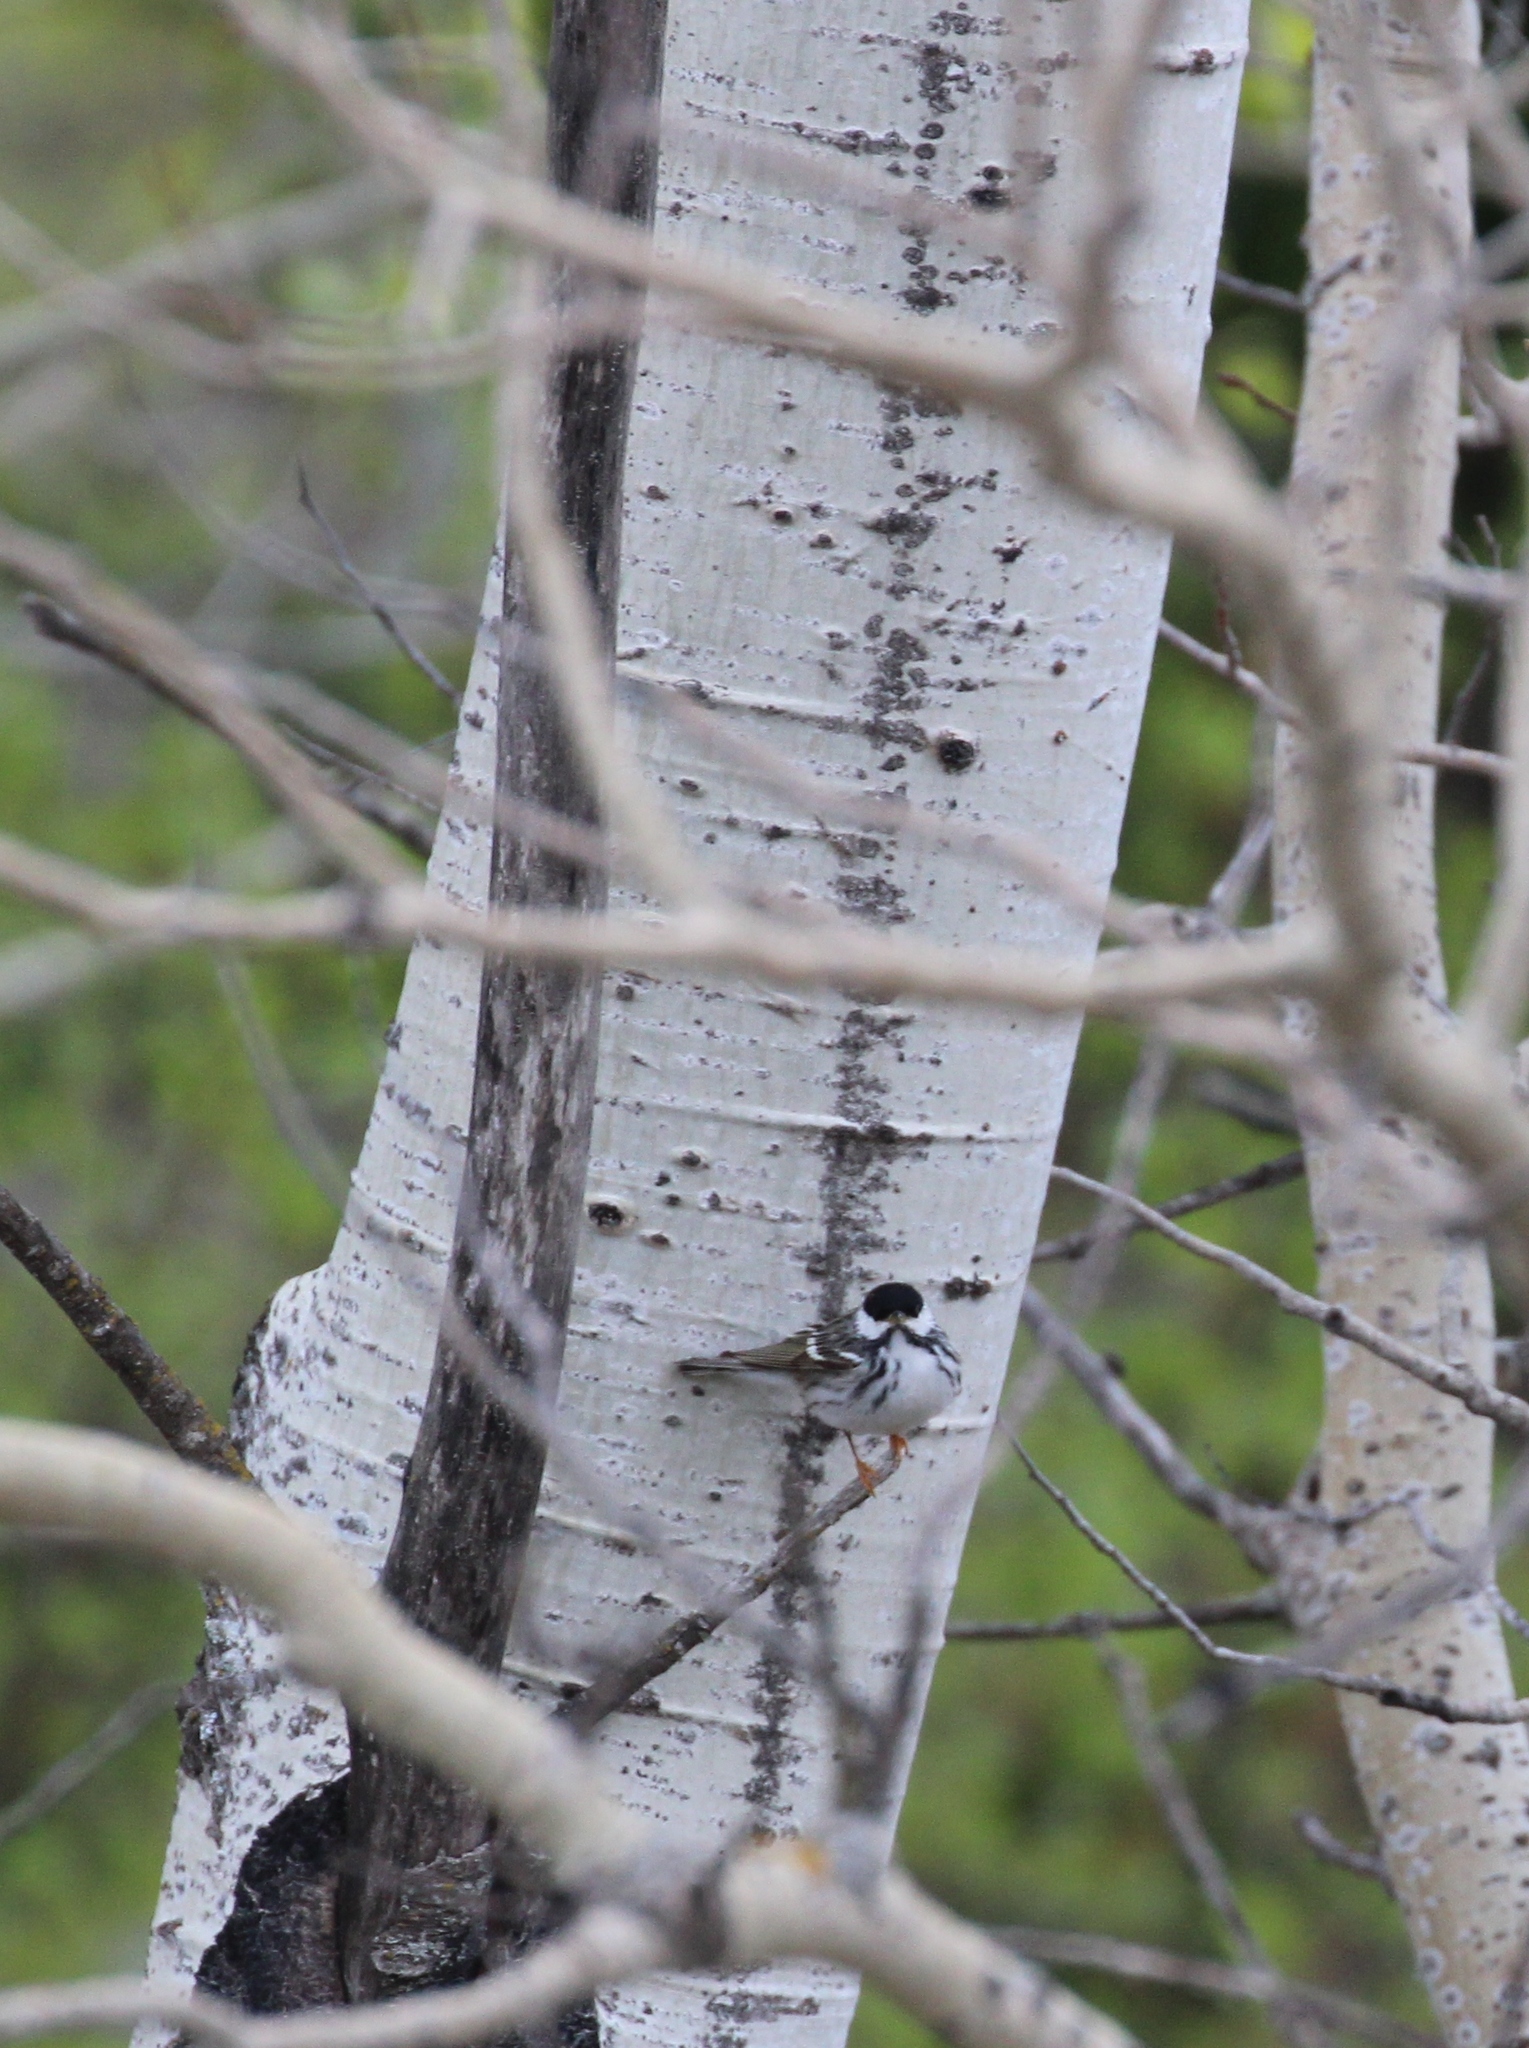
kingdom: Animalia
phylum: Chordata
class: Aves
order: Passeriformes
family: Parulidae
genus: Setophaga
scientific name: Setophaga striata
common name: Blackpoll warbler
